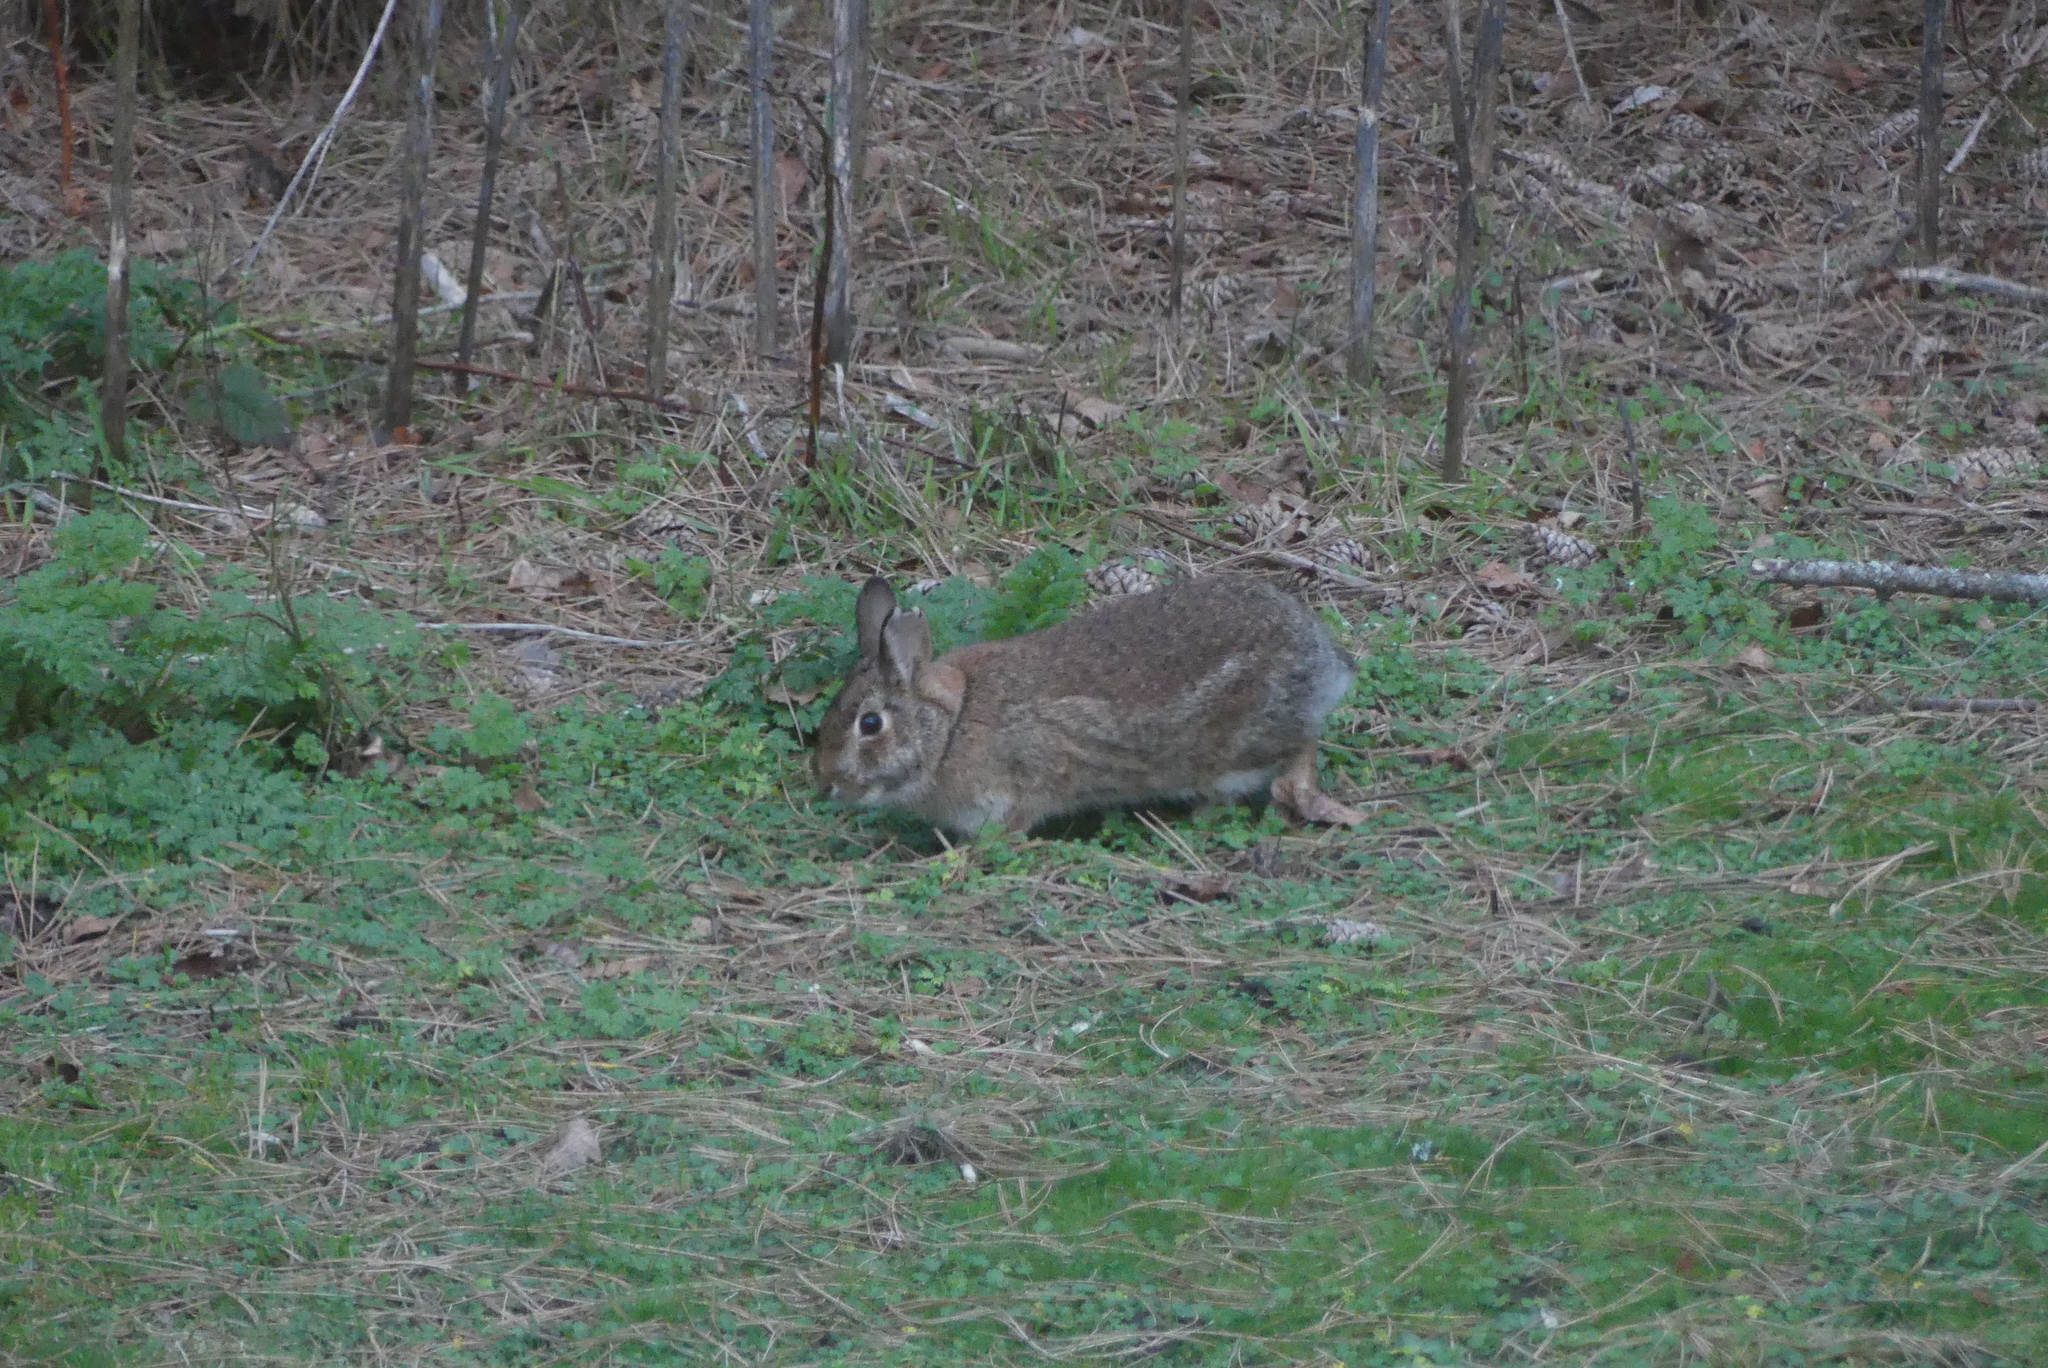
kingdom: Animalia
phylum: Chordata
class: Mammalia
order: Lagomorpha
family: Leporidae
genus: Sylvilagus
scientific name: Sylvilagus floridanus
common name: Eastern cottontail
